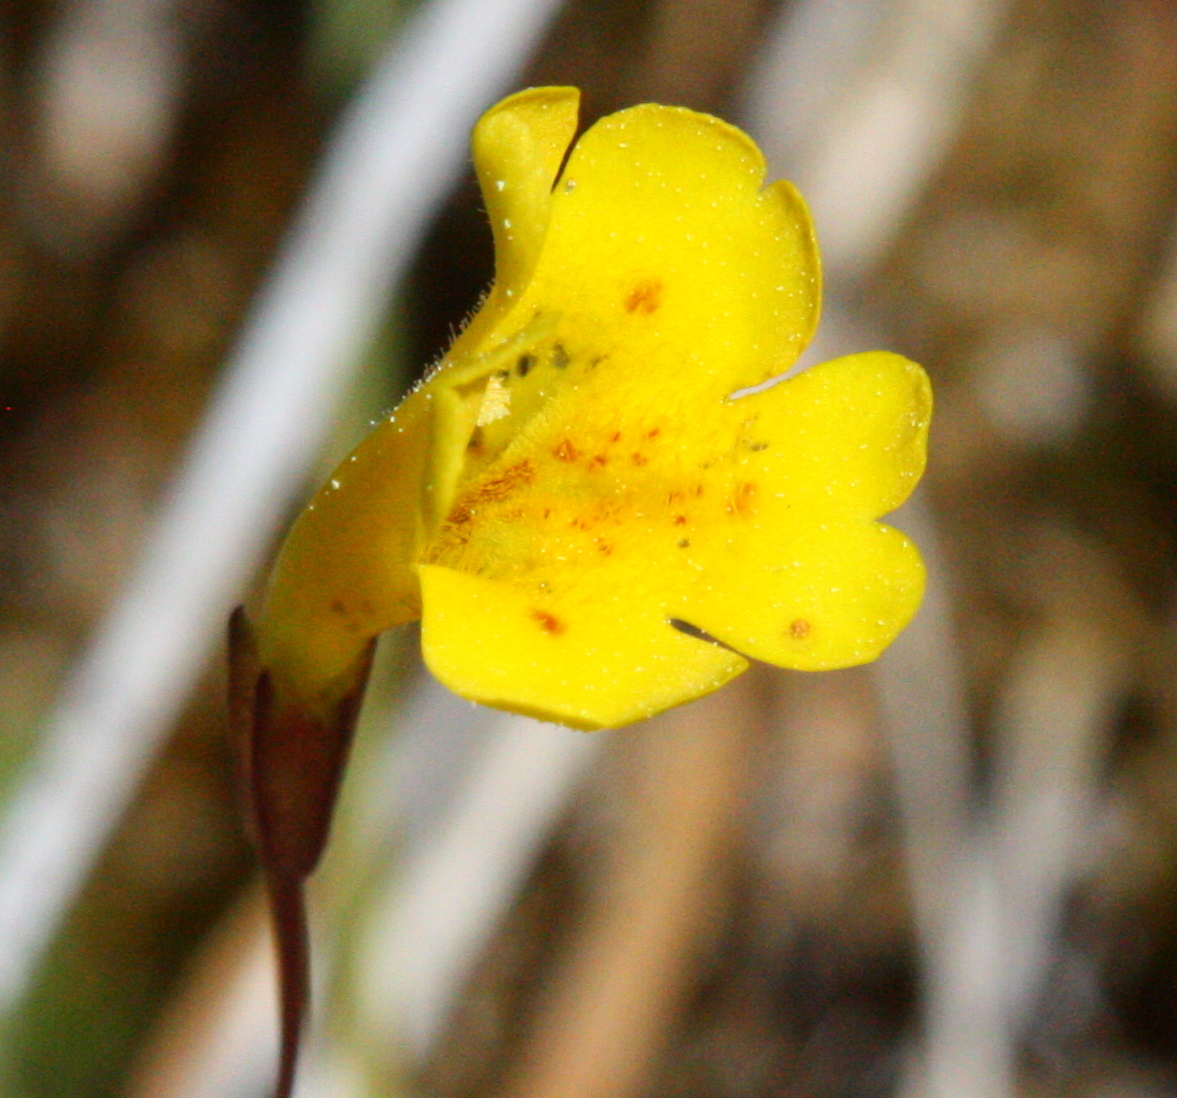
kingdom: Plantae
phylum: Tracheophyta
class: Magnoliopsida
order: Lamiales
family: Phrymaceae
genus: Erythranthe
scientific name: Erythranthe primuloides
